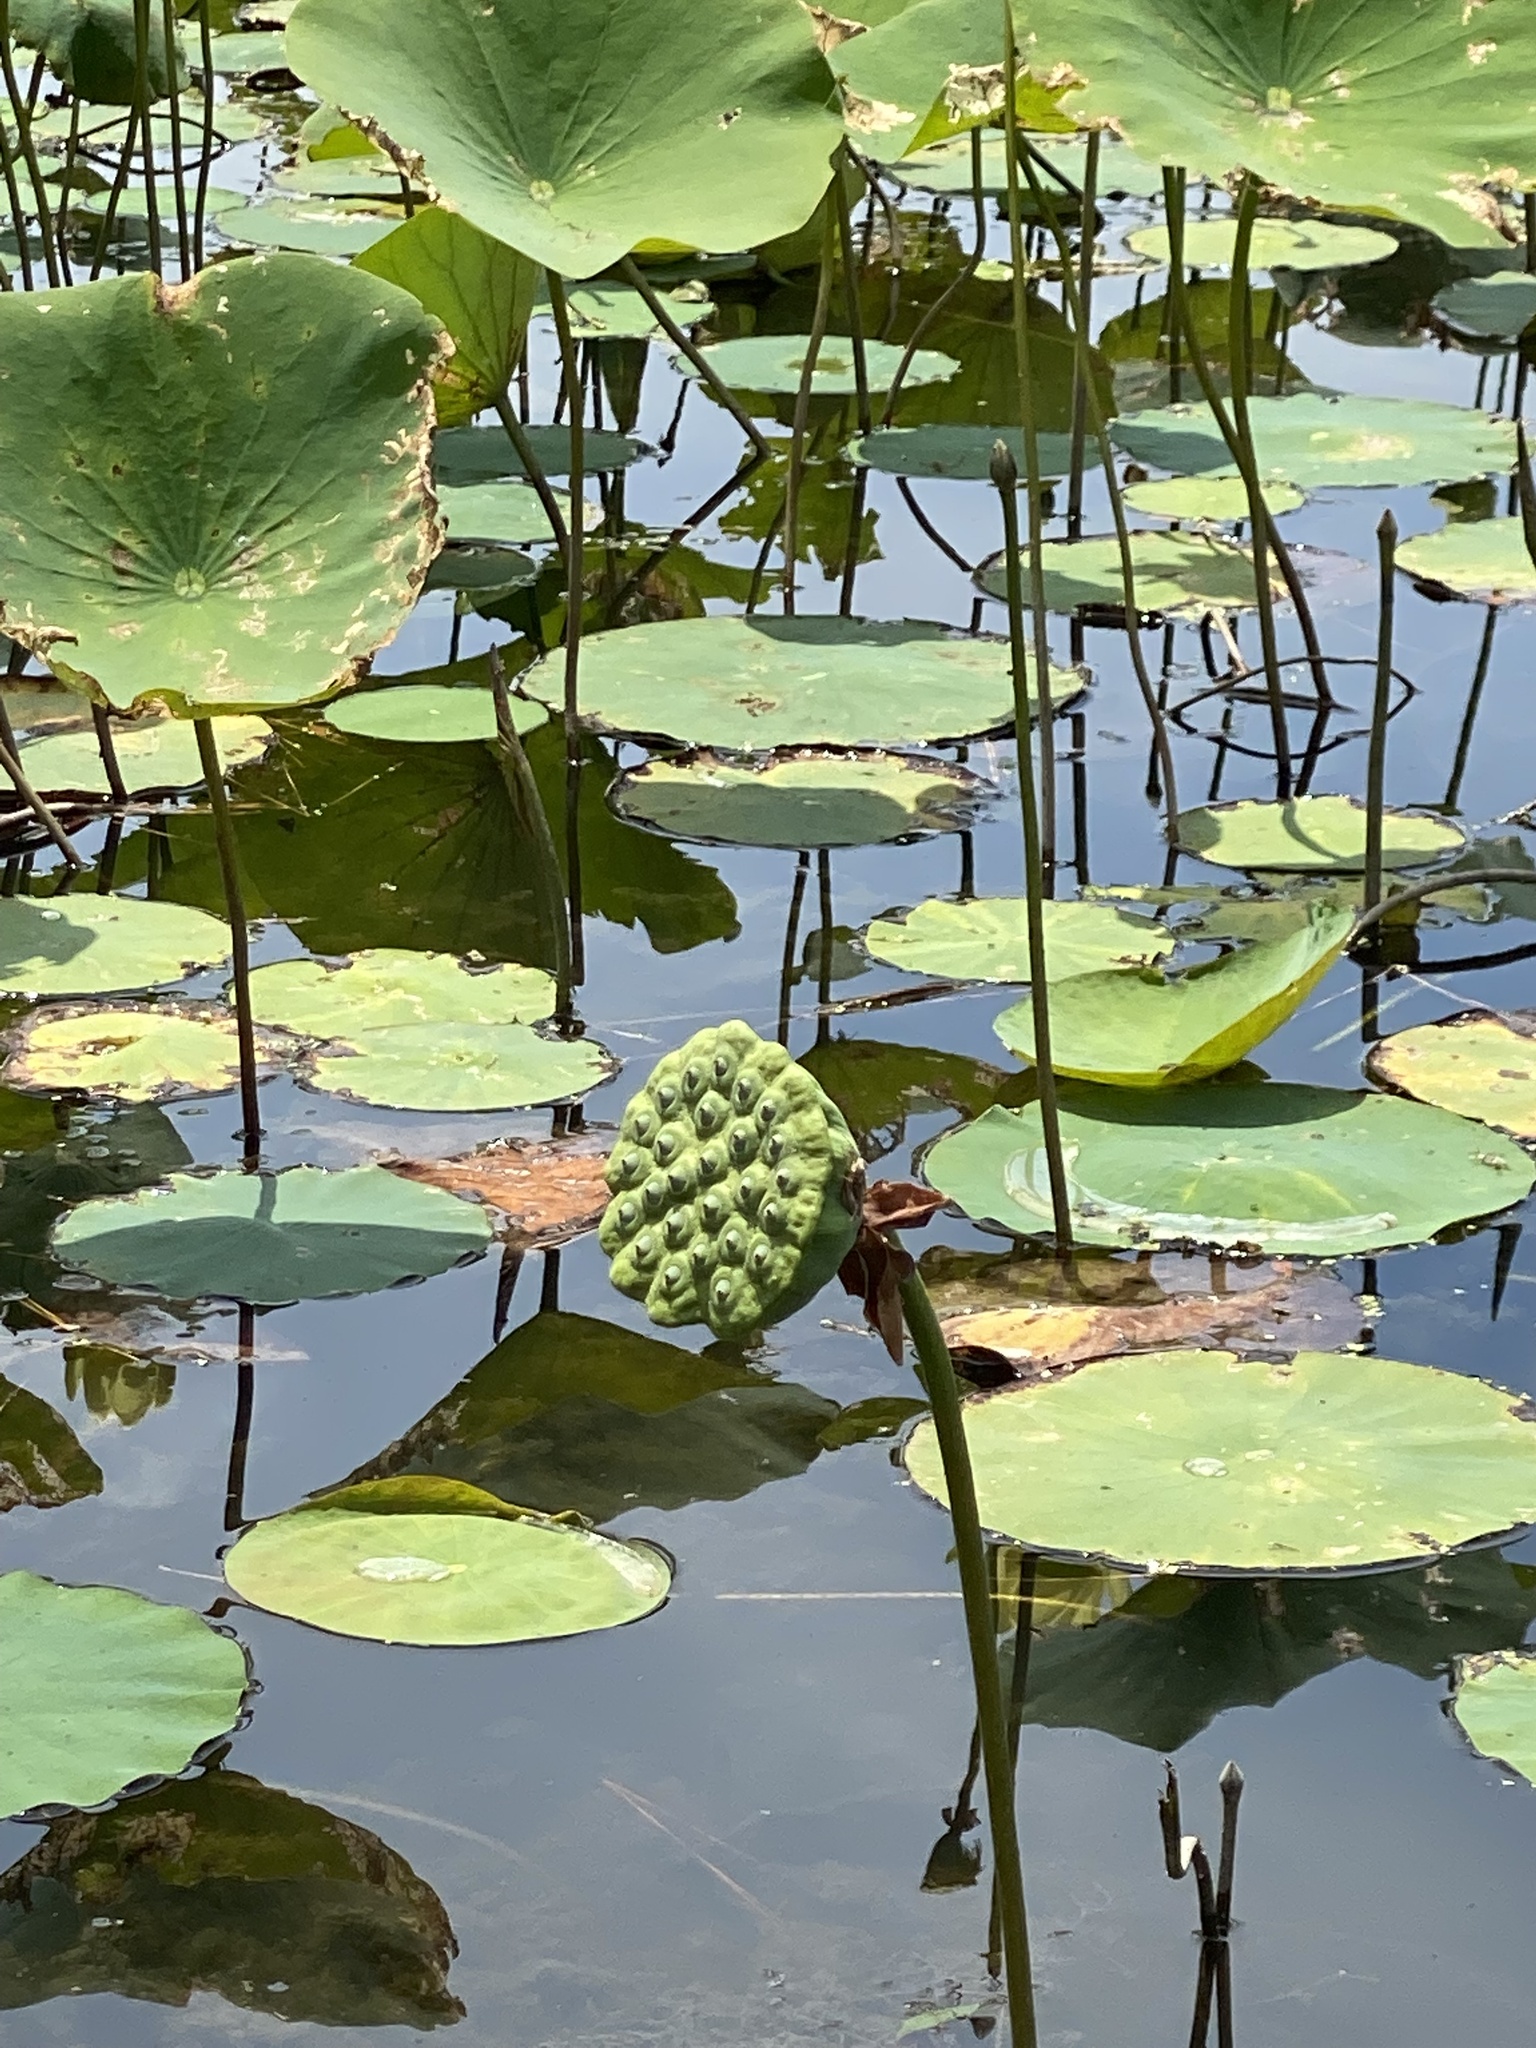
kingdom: Plantae
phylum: Tracheophyta
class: Magnoliopsida
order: Proteales
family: Nelumbonaceae
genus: Nelumbo
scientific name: Nelumbo lutea
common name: American lotus
